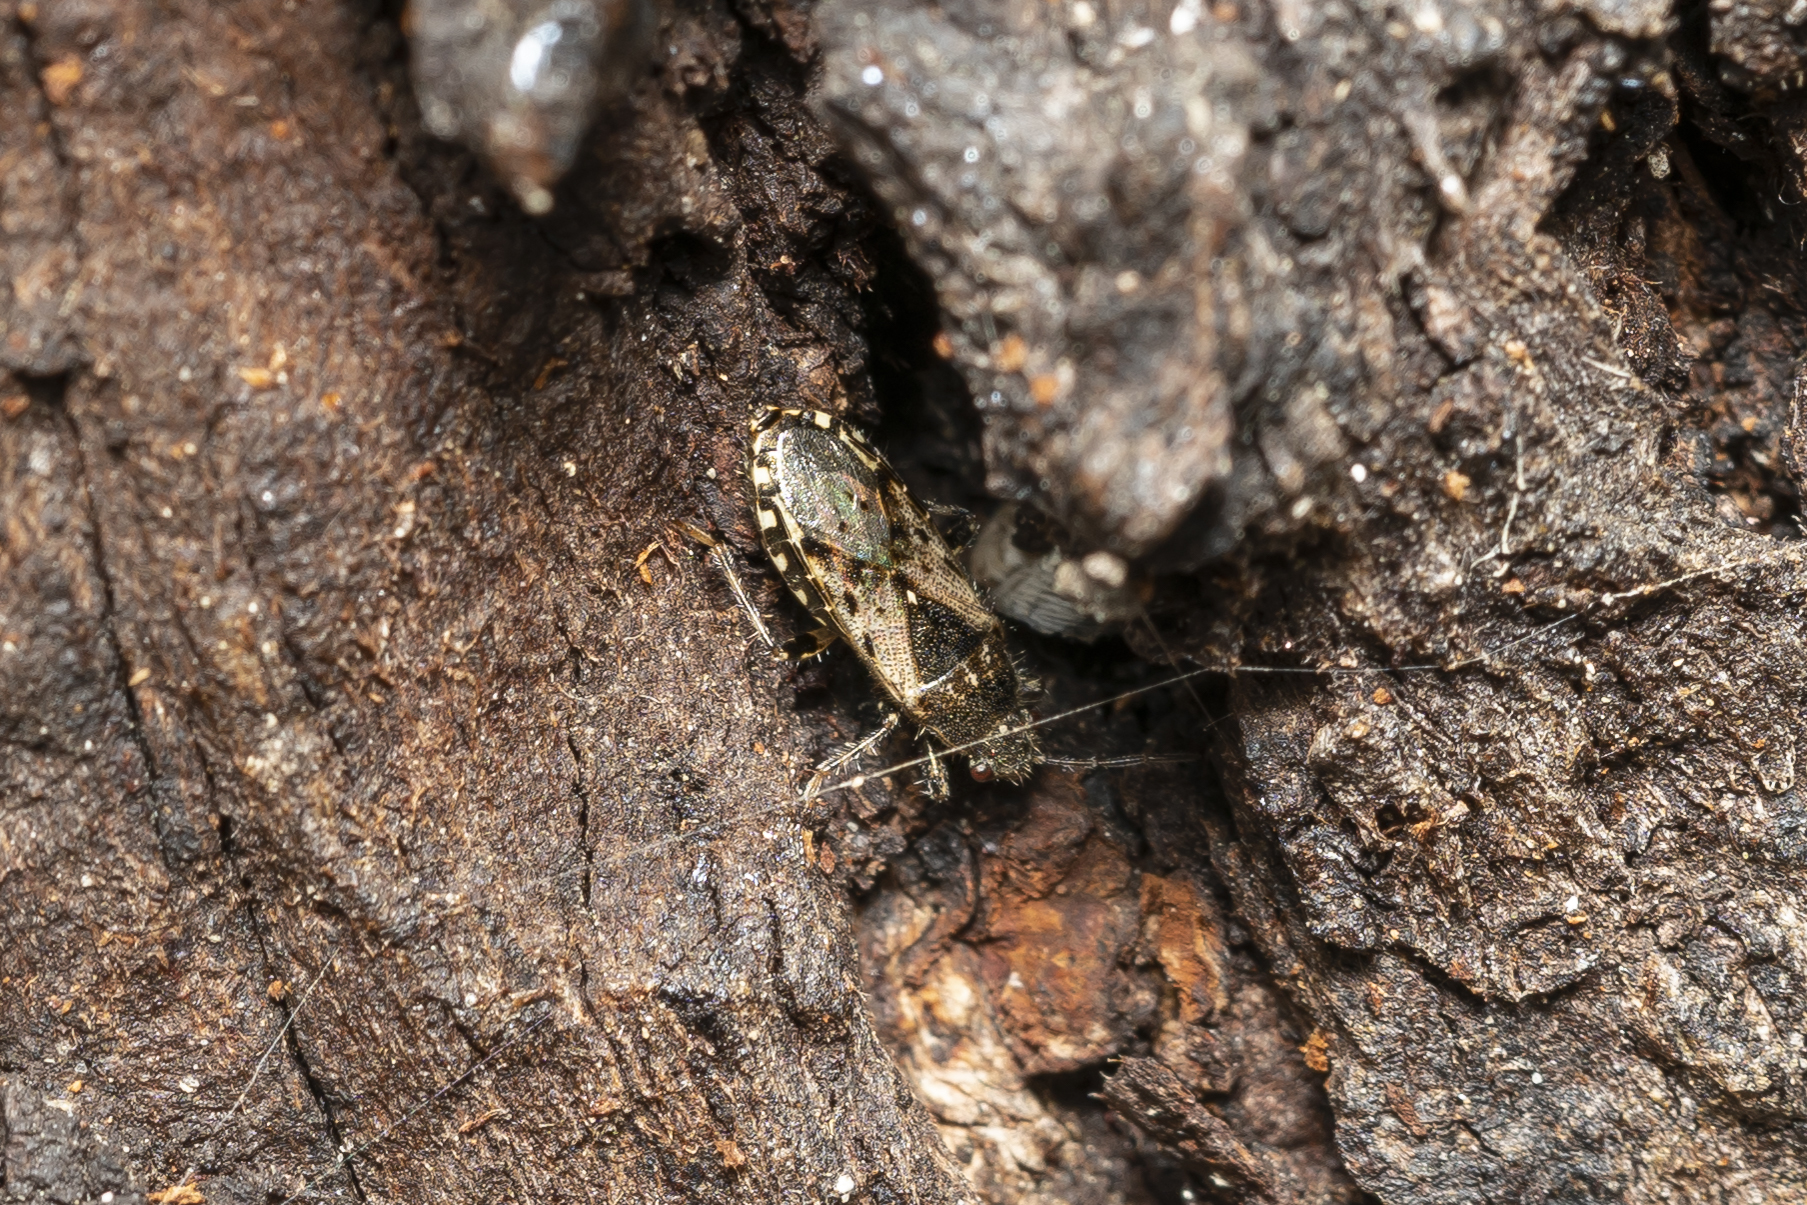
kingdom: Animalia
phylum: Arthropoda
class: Insecta
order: Hemiptera
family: Heterogastridae
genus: Heterogaster
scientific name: Heterogaster urticae
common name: Seed bug
